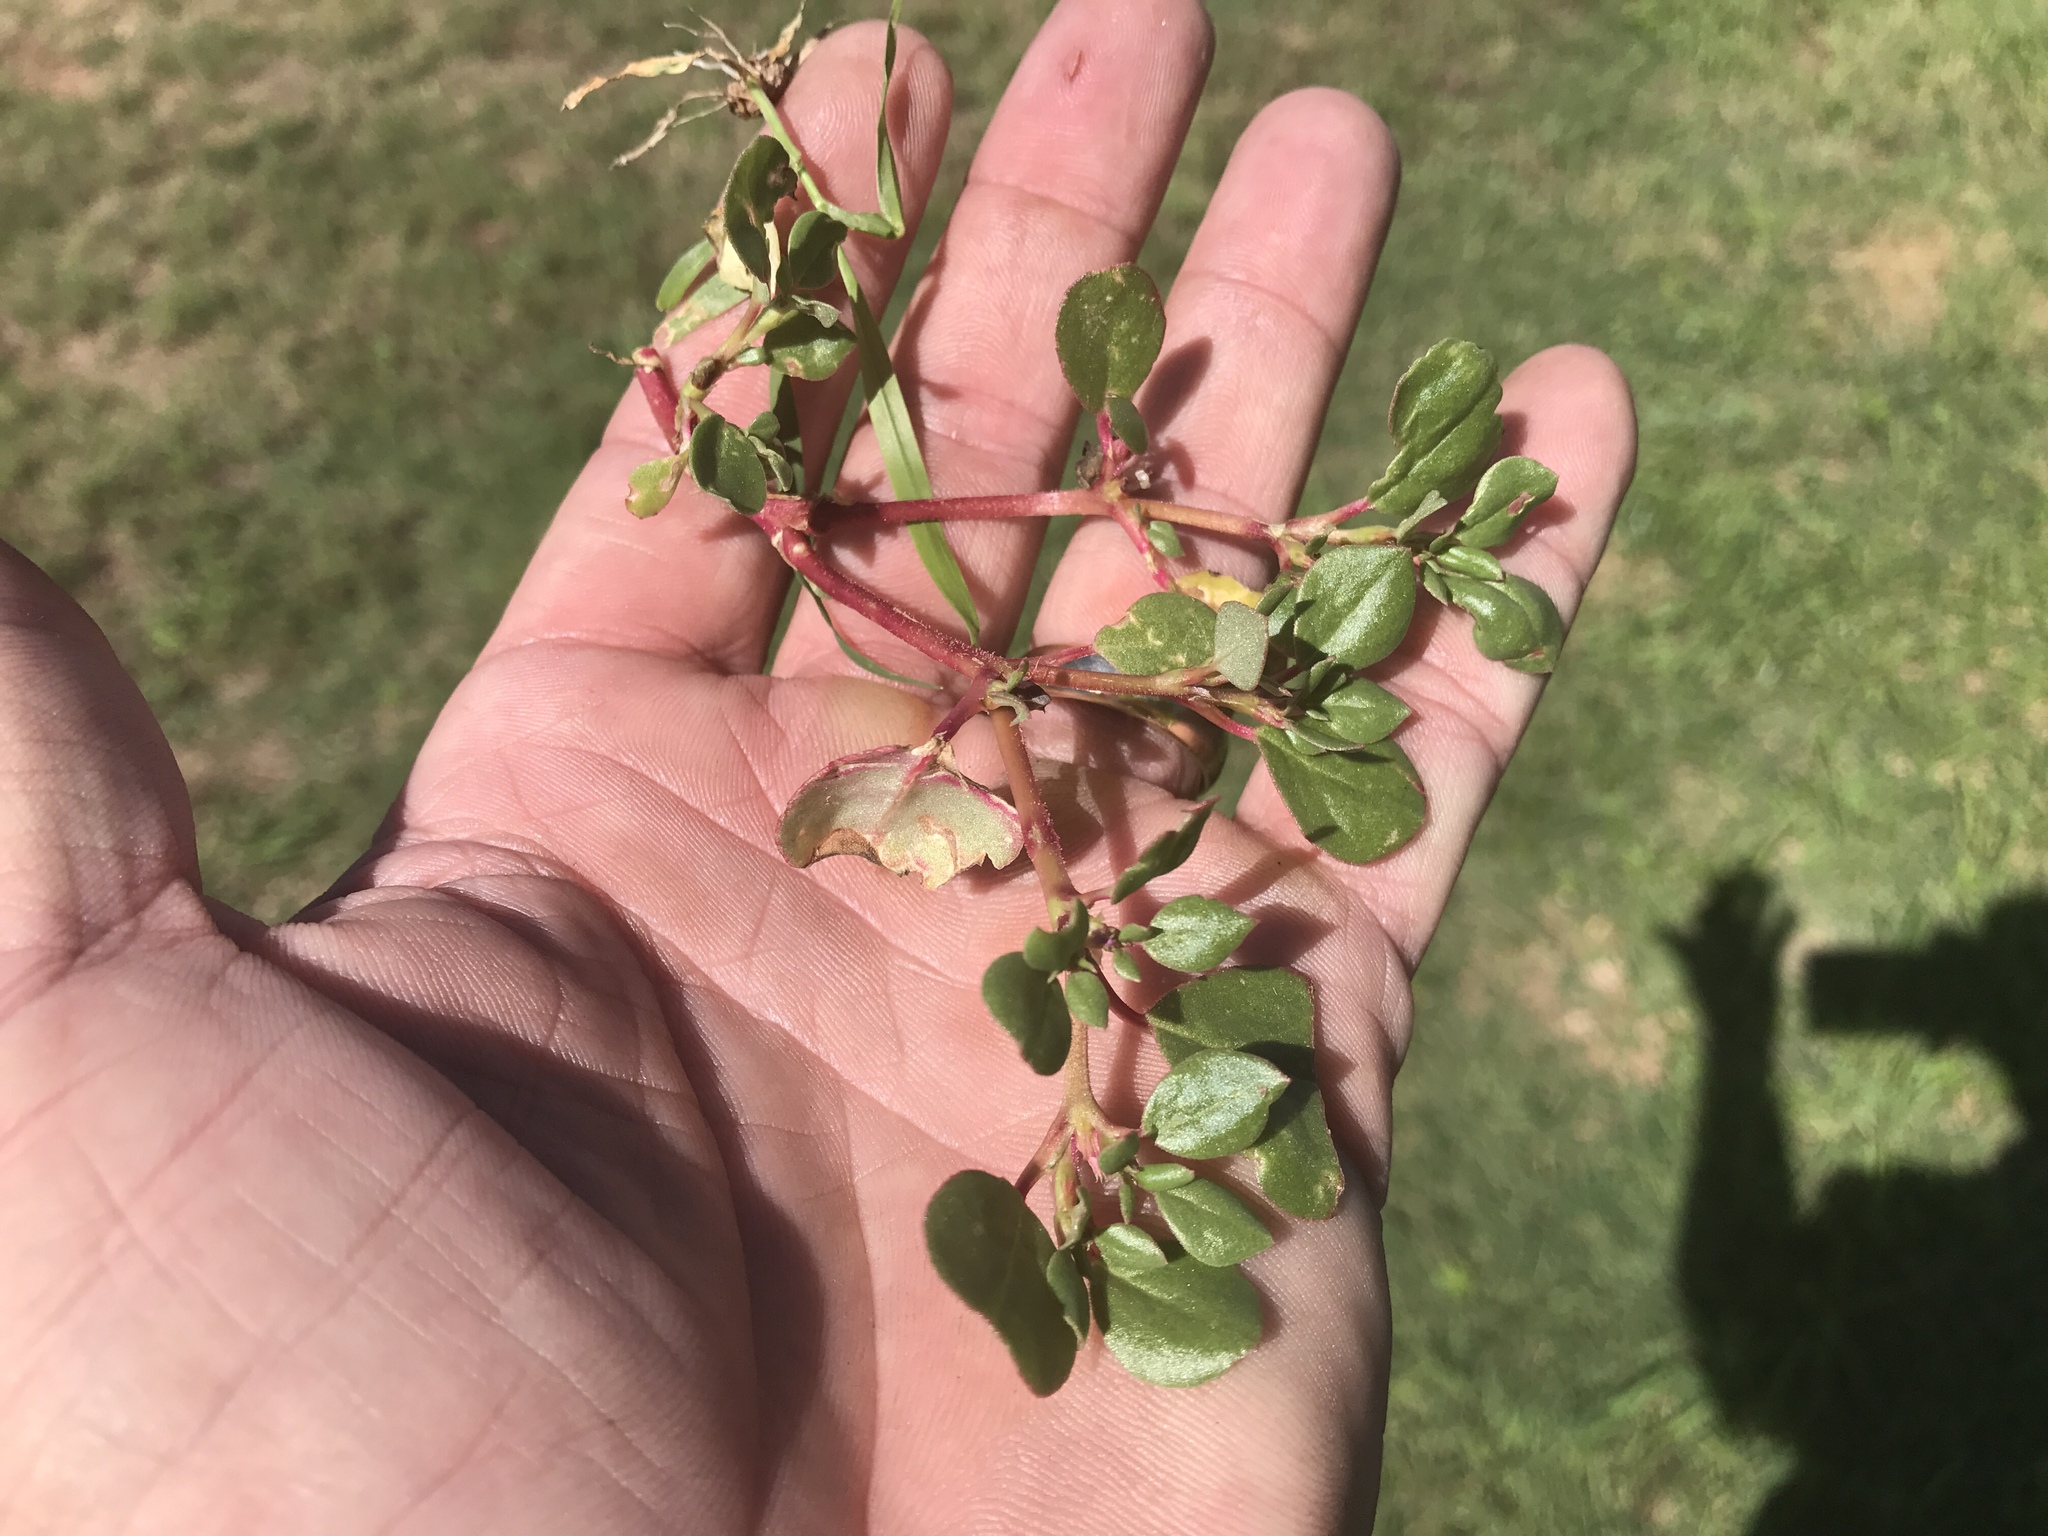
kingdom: Plantae
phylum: Tracheophyta
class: Magnoliopsida
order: Caryophyllales
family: Aizoaceae
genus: Trianthema
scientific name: Trianthema portulacastrum
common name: Desert horsepurslane
